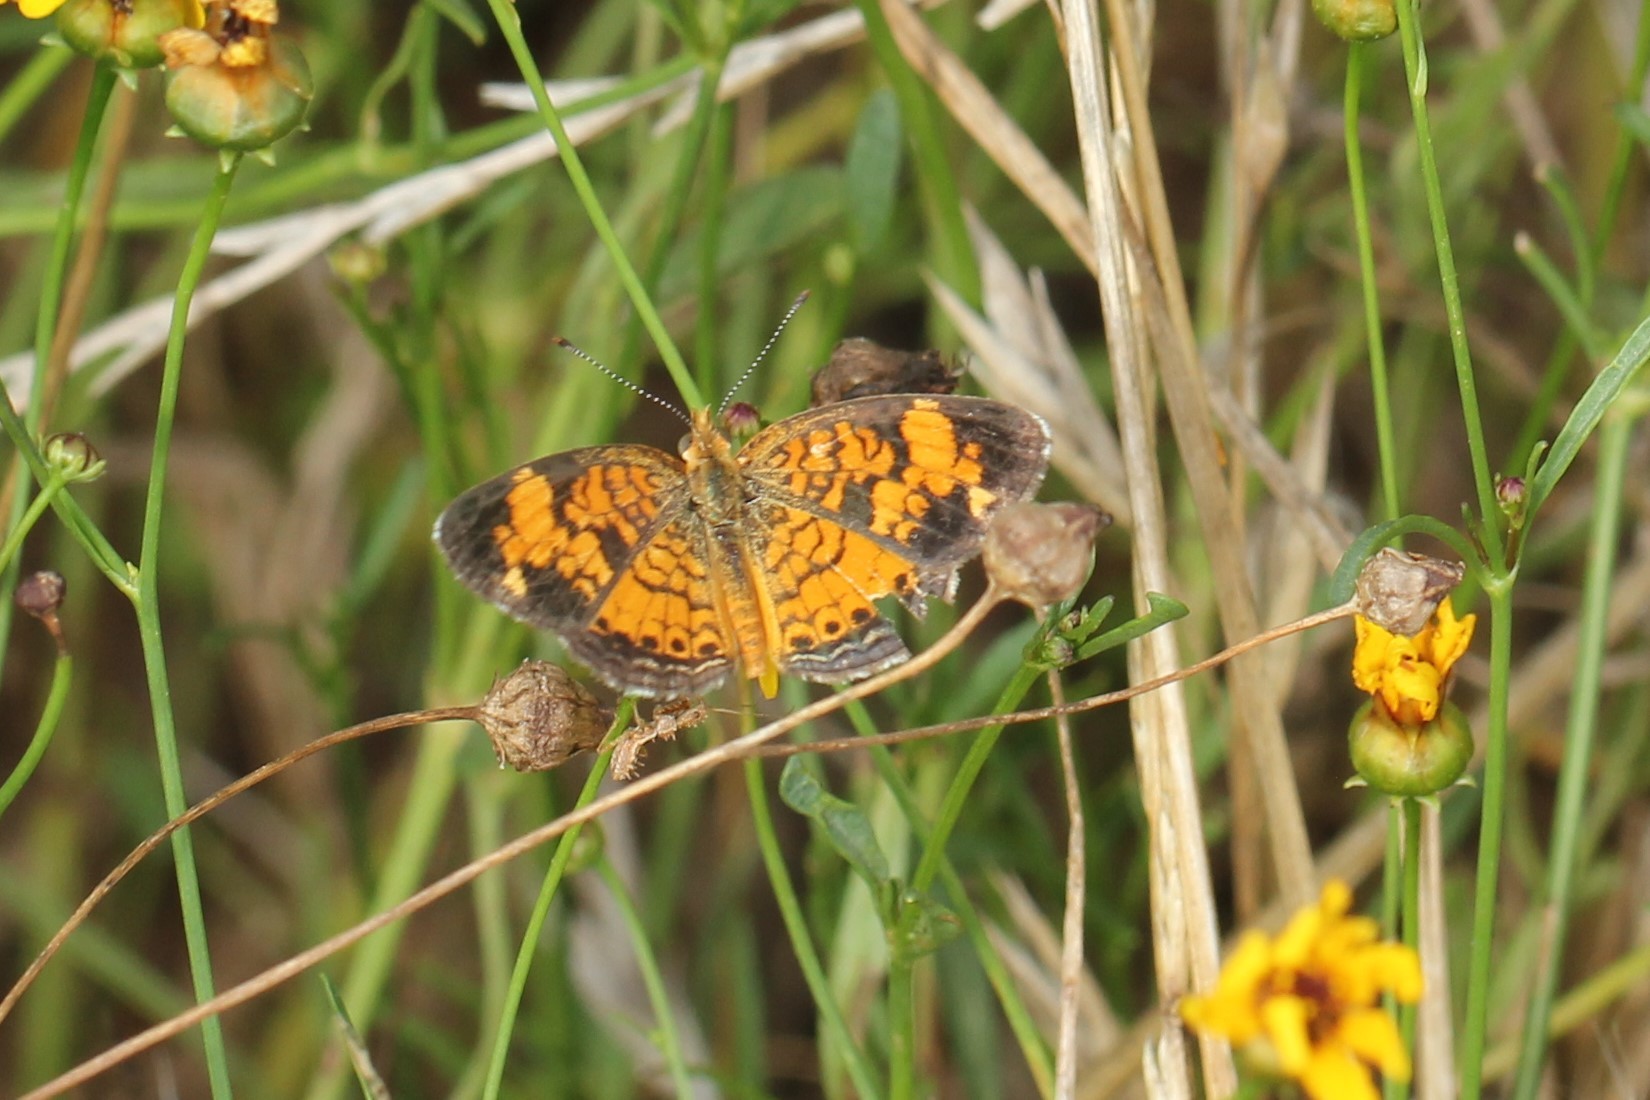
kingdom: Animalia
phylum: Arthropoda
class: Insecta
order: Lepidoptera
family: Nymphalidae
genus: Phyciodes
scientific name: Phyciodes tharos
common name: Pearl crescent
